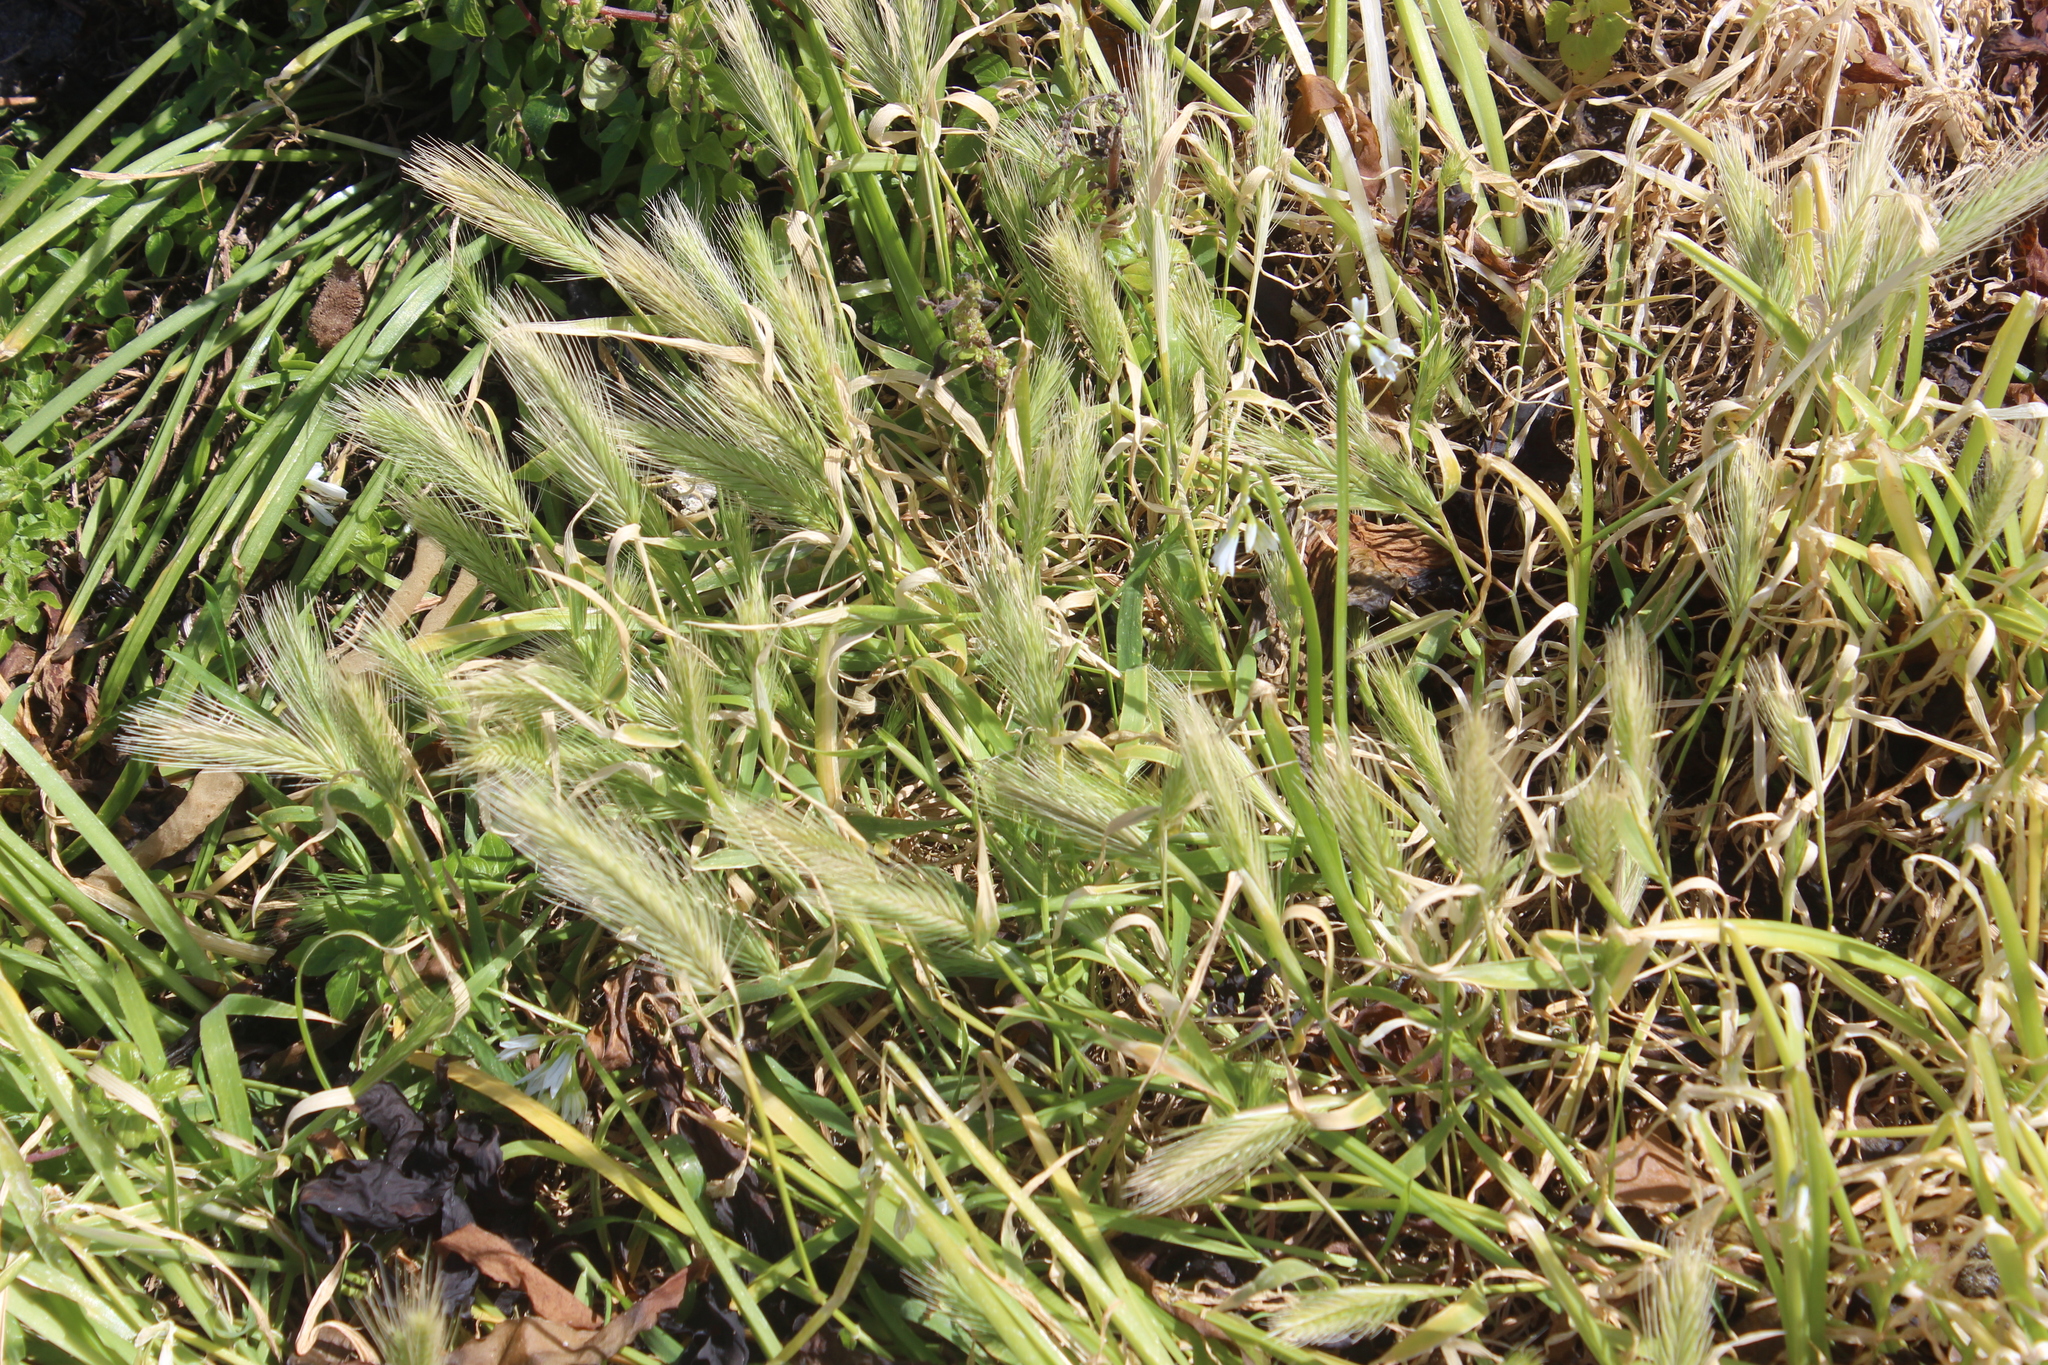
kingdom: Plantae
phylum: Tracheophyta
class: Liliopsida
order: Poales
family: Poaceae
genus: Hordeum
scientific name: Hordeum murinum
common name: Wall barley
